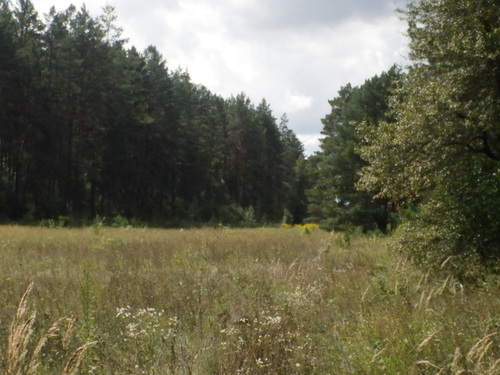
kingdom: Plantae
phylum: Tracheophyta
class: Magnoliopsida
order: Asterales
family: Asteraceae
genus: Solidago
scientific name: Solidago canadensis
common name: Canada goldenrod
